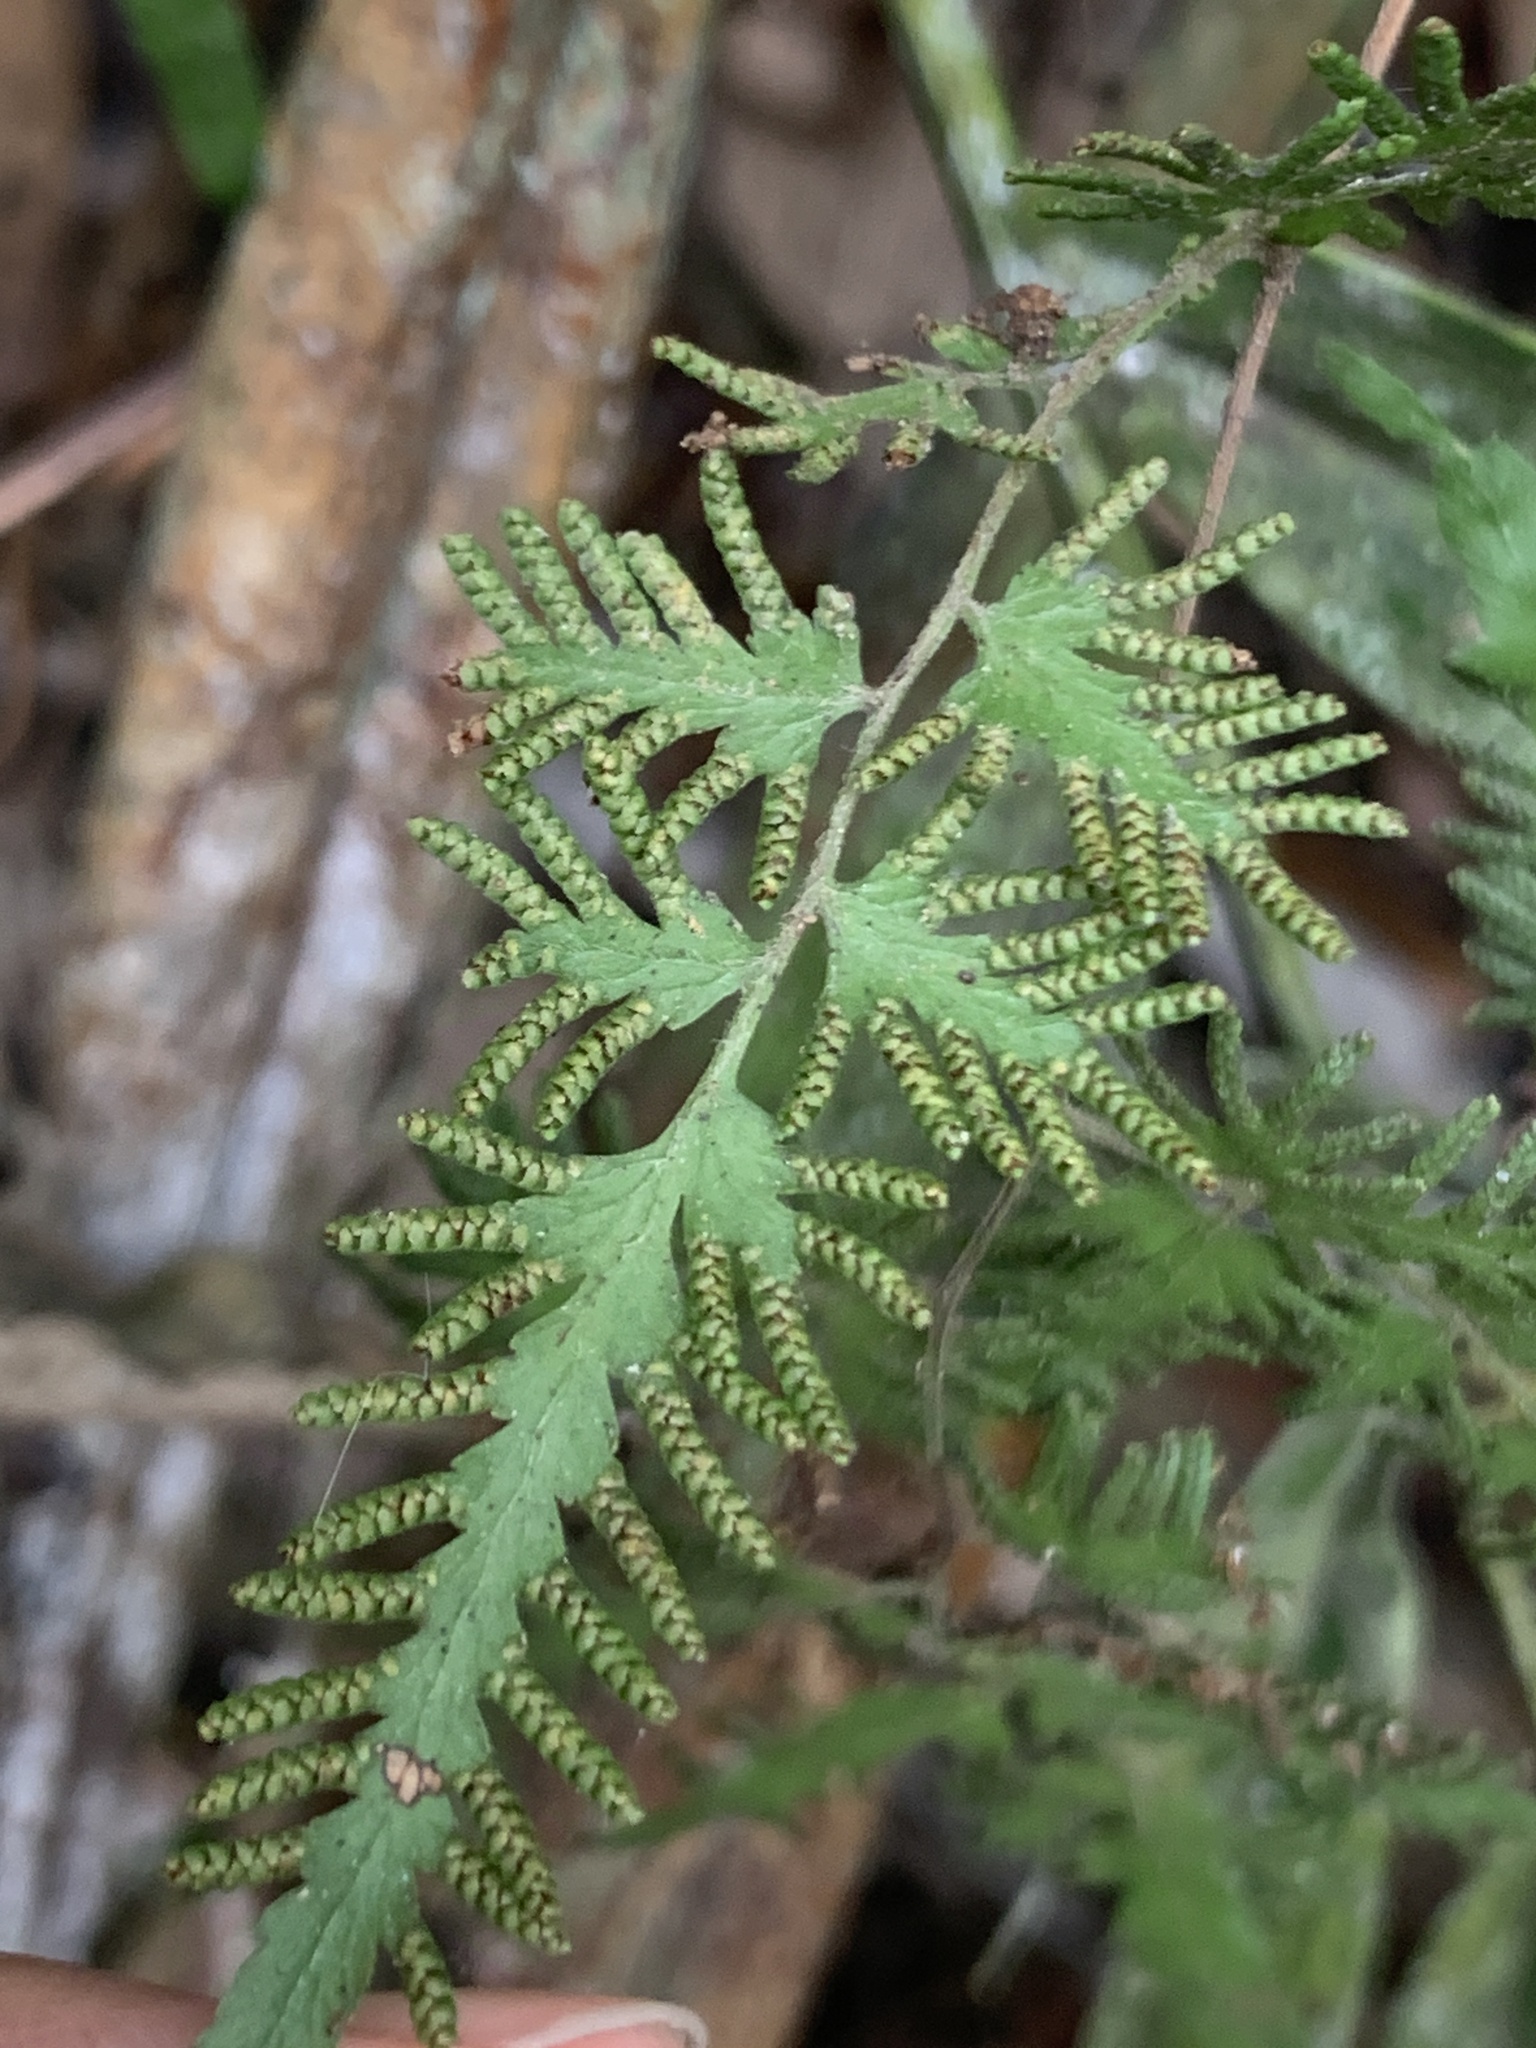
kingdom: Plantae
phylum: Tracheophyta
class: Polypodiopsida
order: Schizaeales
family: Lygodiaceae
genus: Lygodium
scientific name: Lygodium japonicum
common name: Japanese climbing fern
